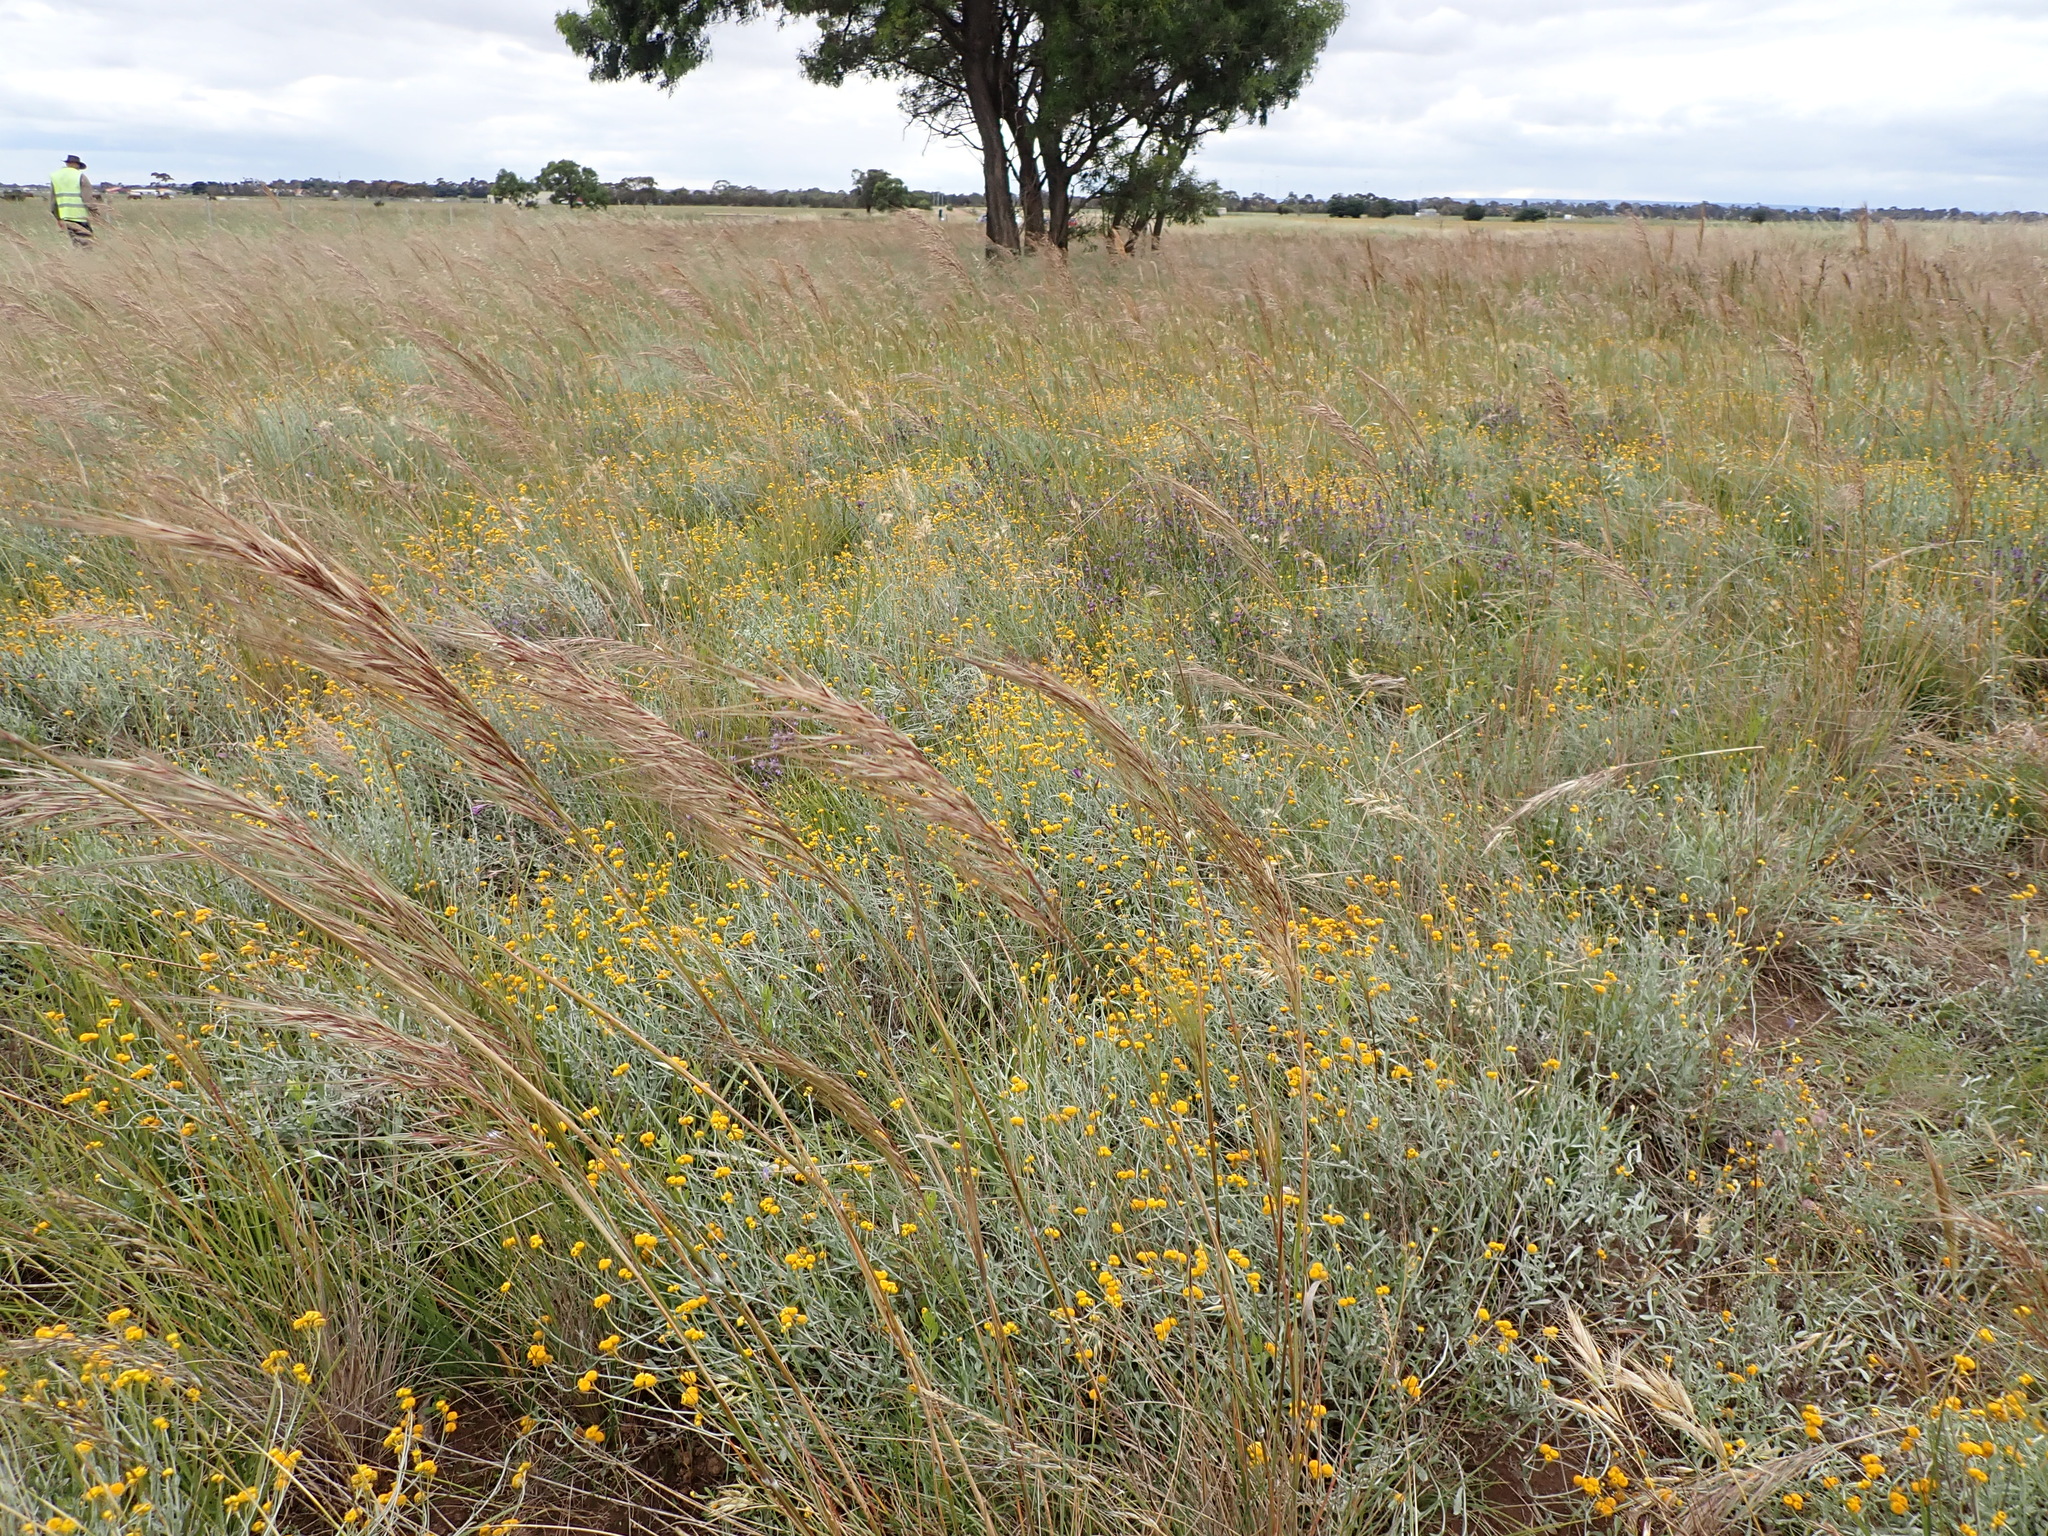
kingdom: Plantae
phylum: Tracheophyta
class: Magnoliopsida
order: Asterales
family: Asteraceae
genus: Chrysocephalum
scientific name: Chrysocephalum apiculatum
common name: Common everlasting
